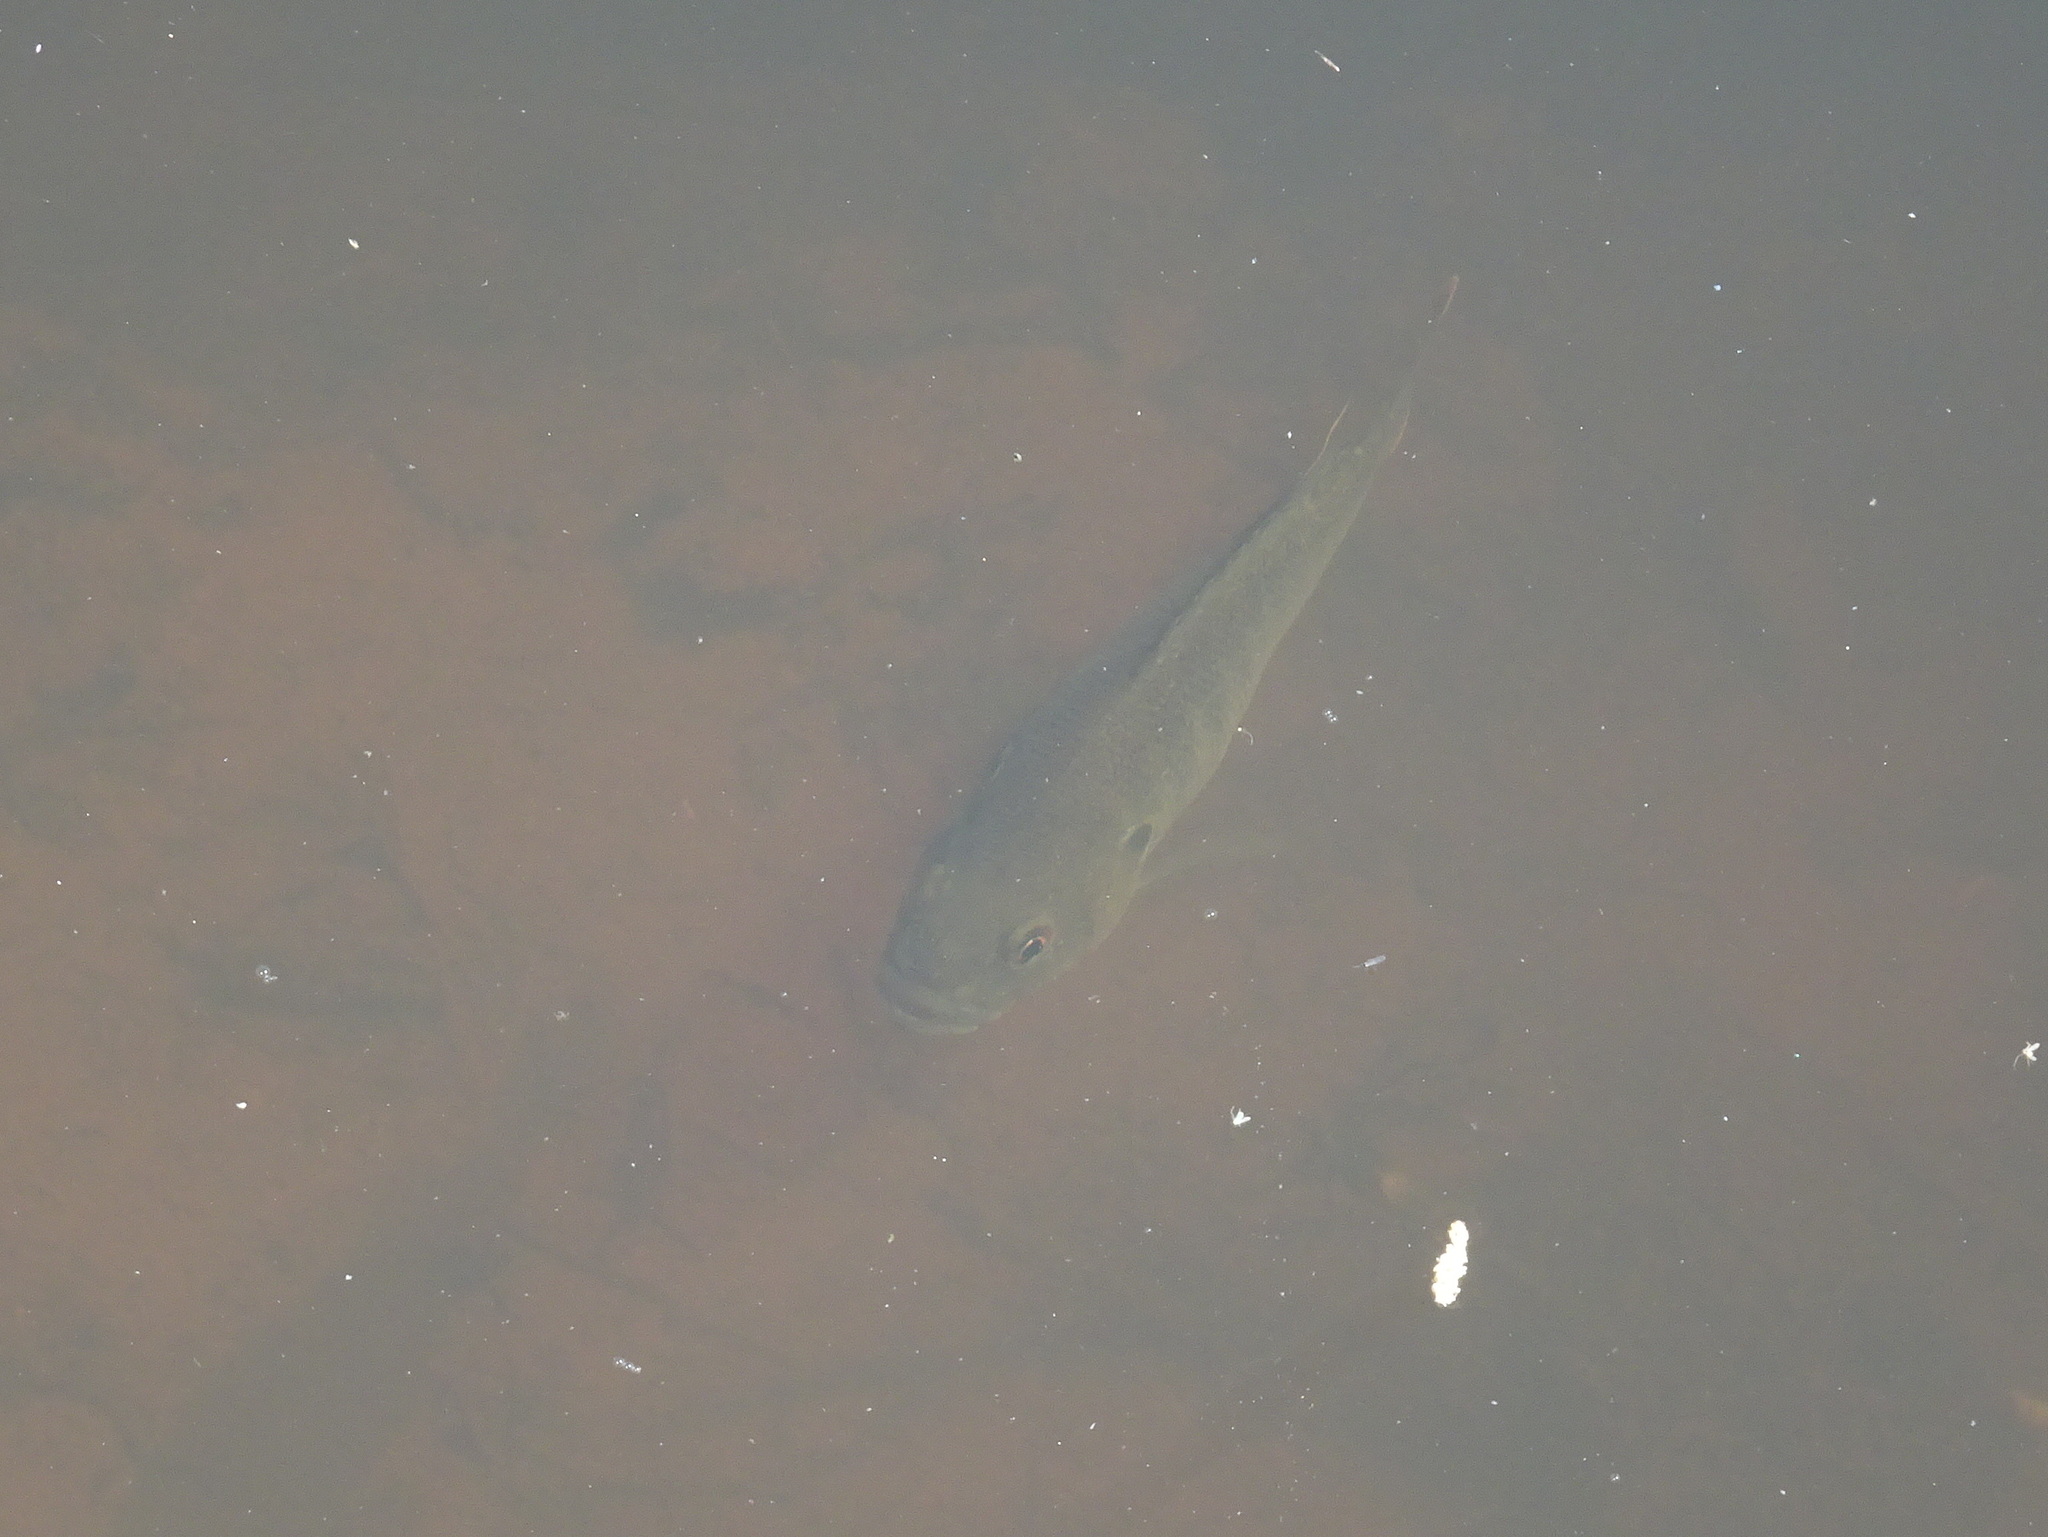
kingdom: Animalia
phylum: Chordata
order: Perciformes
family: Centrarchidae
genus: Lepomis
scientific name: Lepomis cyanellus
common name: Green sunfish
